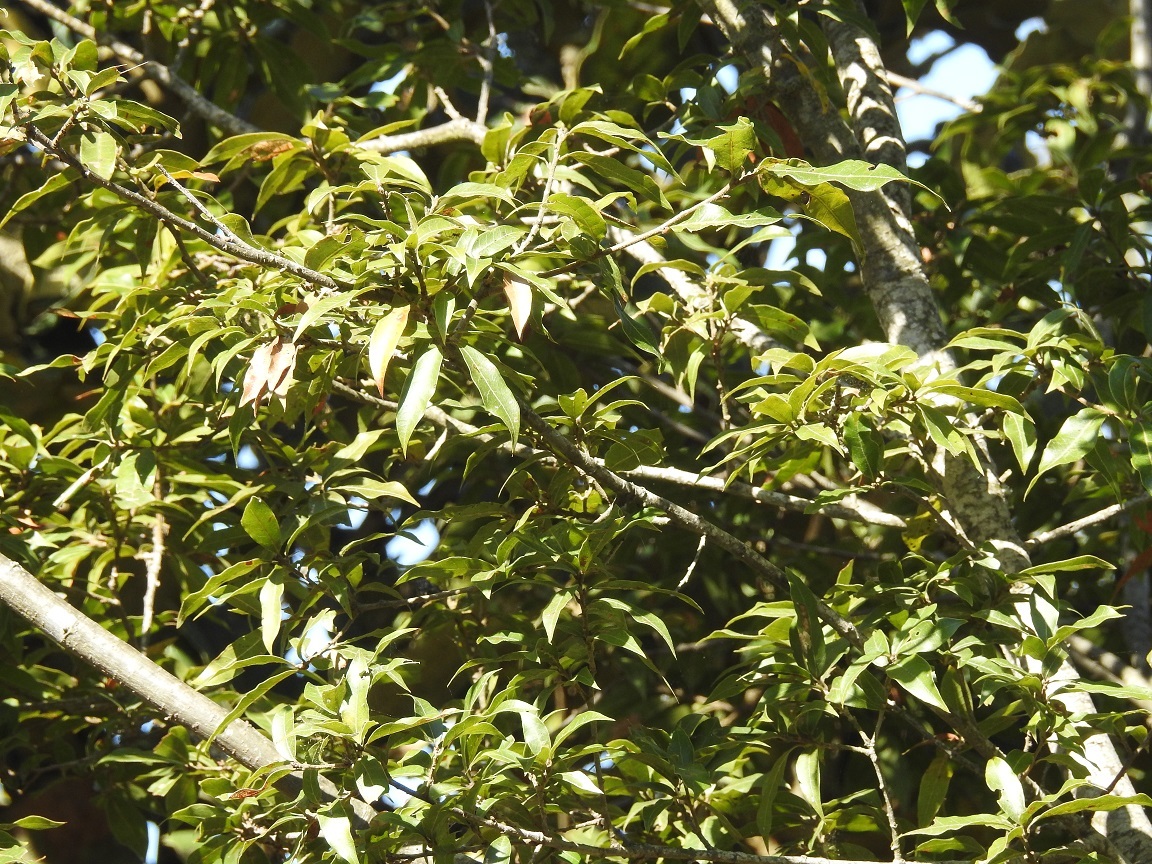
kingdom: Plantae
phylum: Tracheophyta
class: Magnoliopsida
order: Fagales
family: Fagaceae
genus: Quercus
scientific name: Quercus laurina
